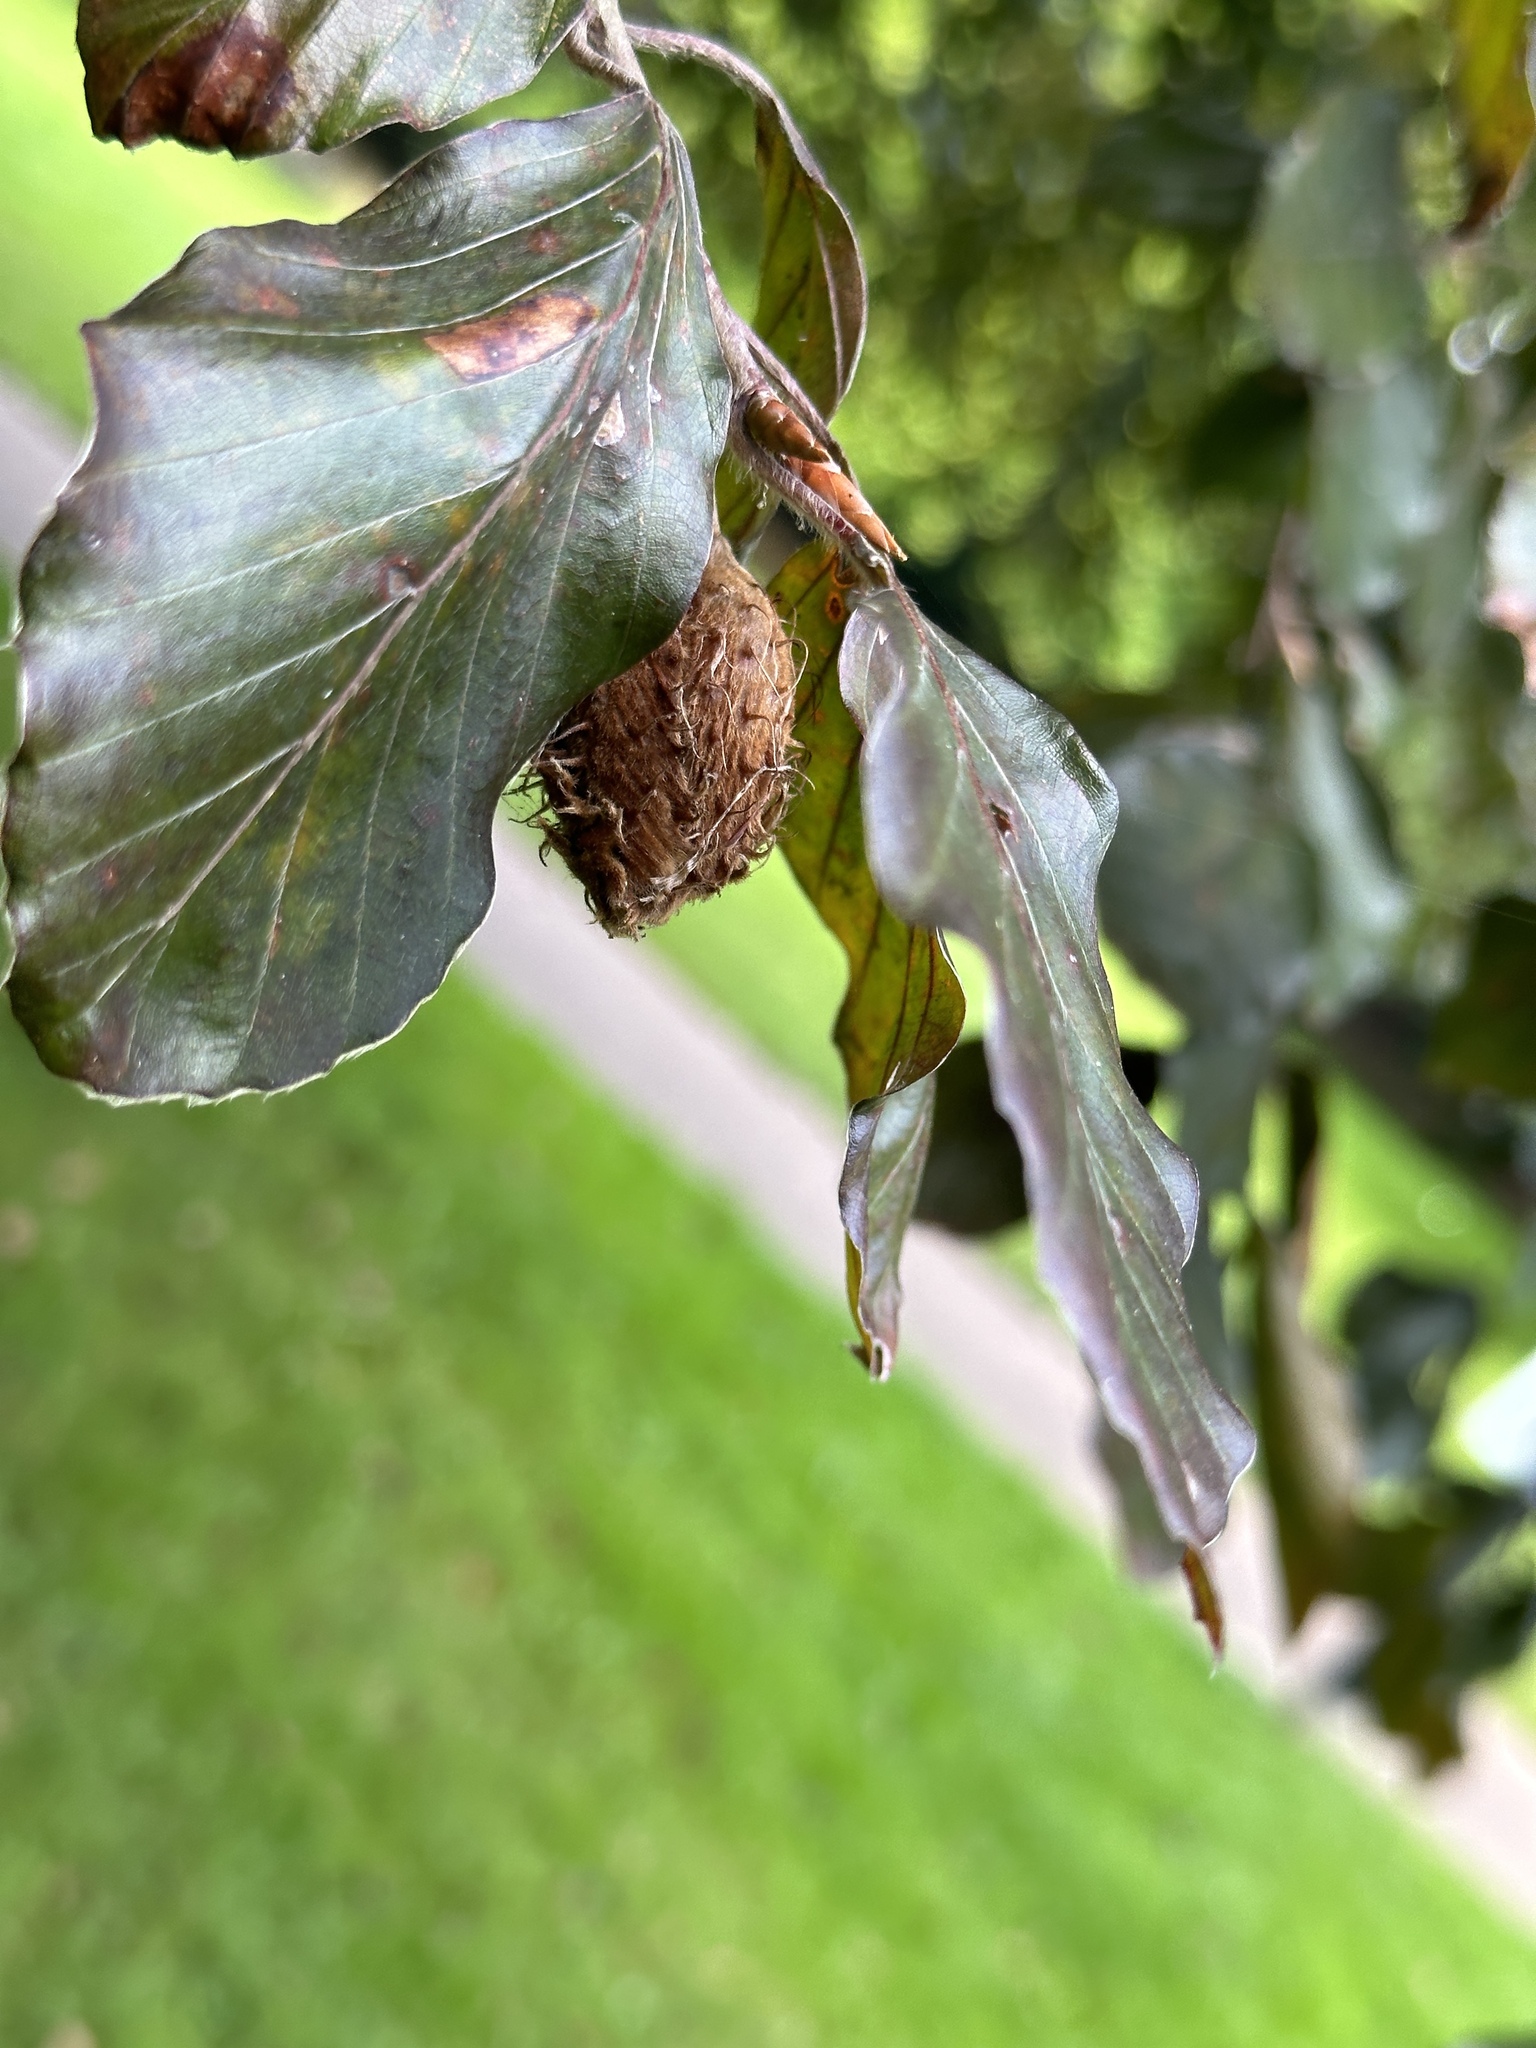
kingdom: Plantae
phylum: Tracheophyta
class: Magnoliopsida
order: Fagales
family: Fagaceae
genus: Fagus
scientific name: Fagus sylvatica
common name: Beech
